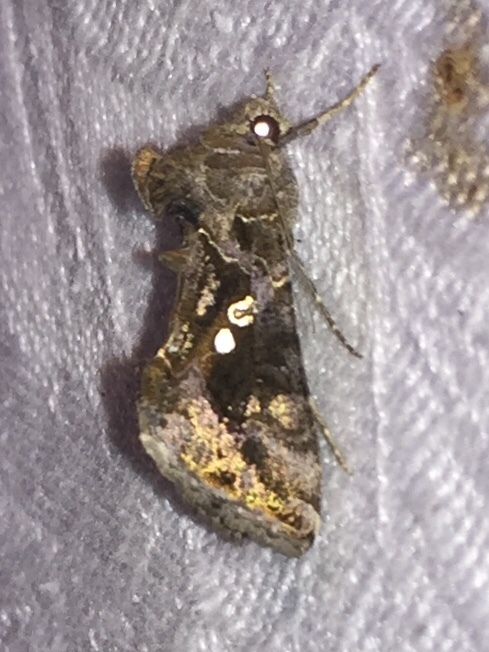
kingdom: Animalia
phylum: Arthropoda
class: Insecta
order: Lepidoptera
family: Noctuidae
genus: Chrysodeixis
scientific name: Chrysodeixis includens
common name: Cutworm moth
